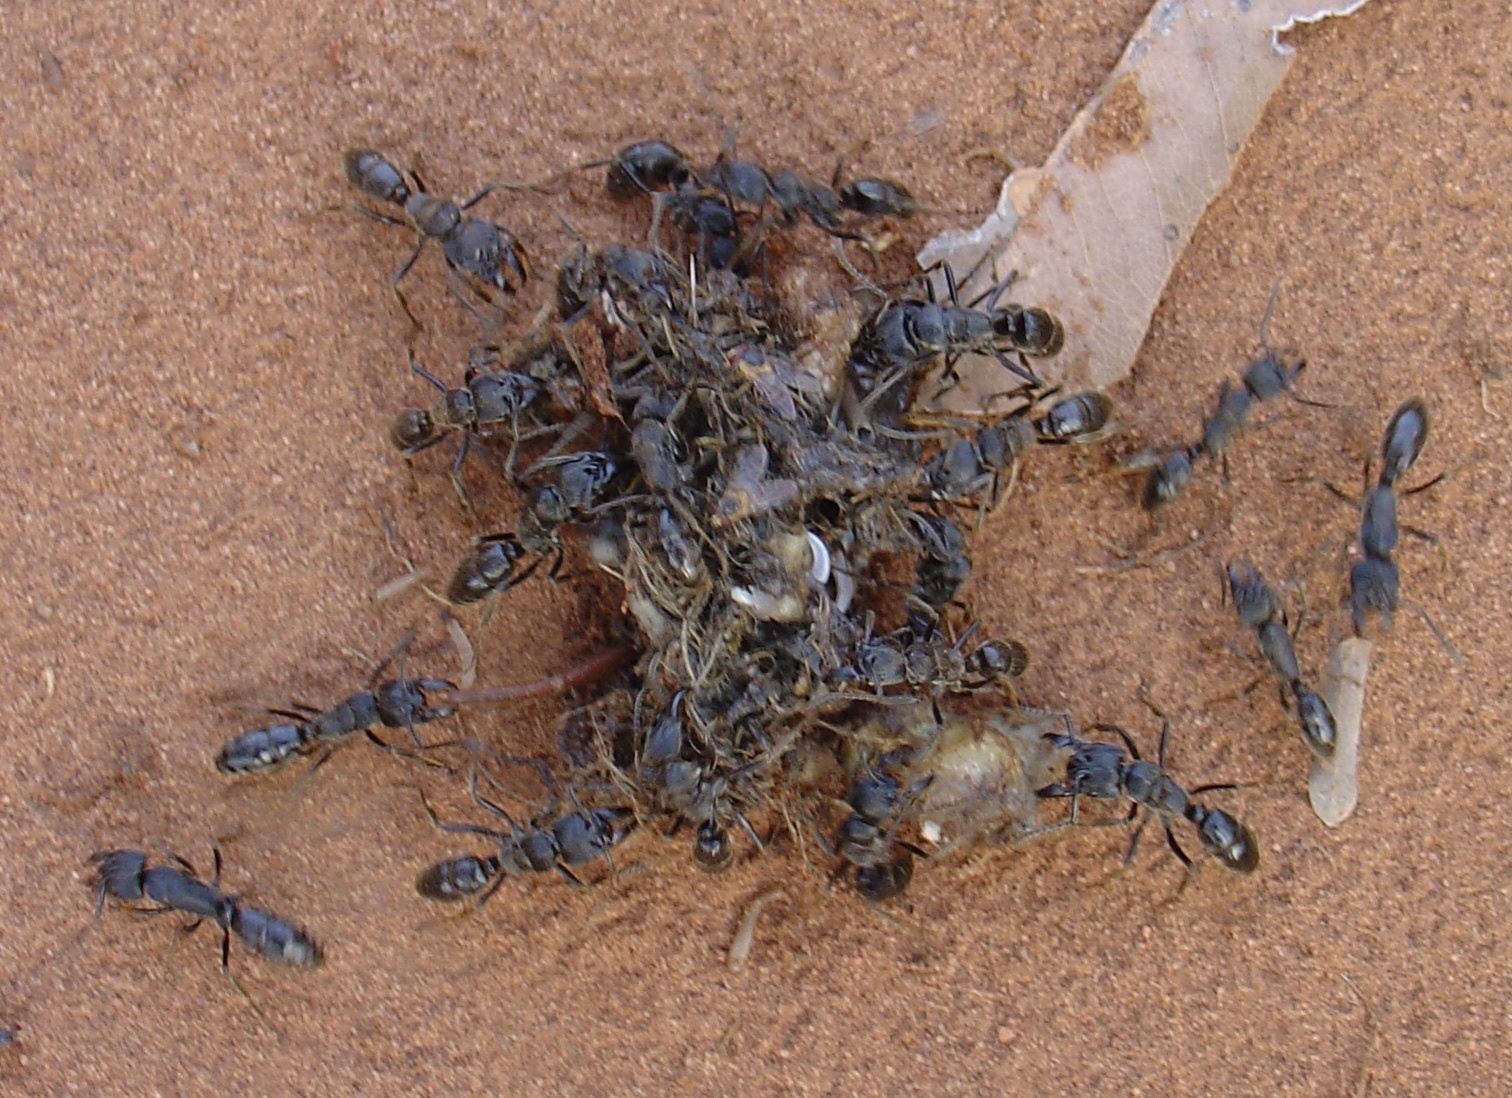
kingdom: Animalia
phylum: Arthropoda
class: Insecta
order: Hymenoptera
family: Formicidae
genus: Paltothyreus
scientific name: Paltothyreus tarsatus
